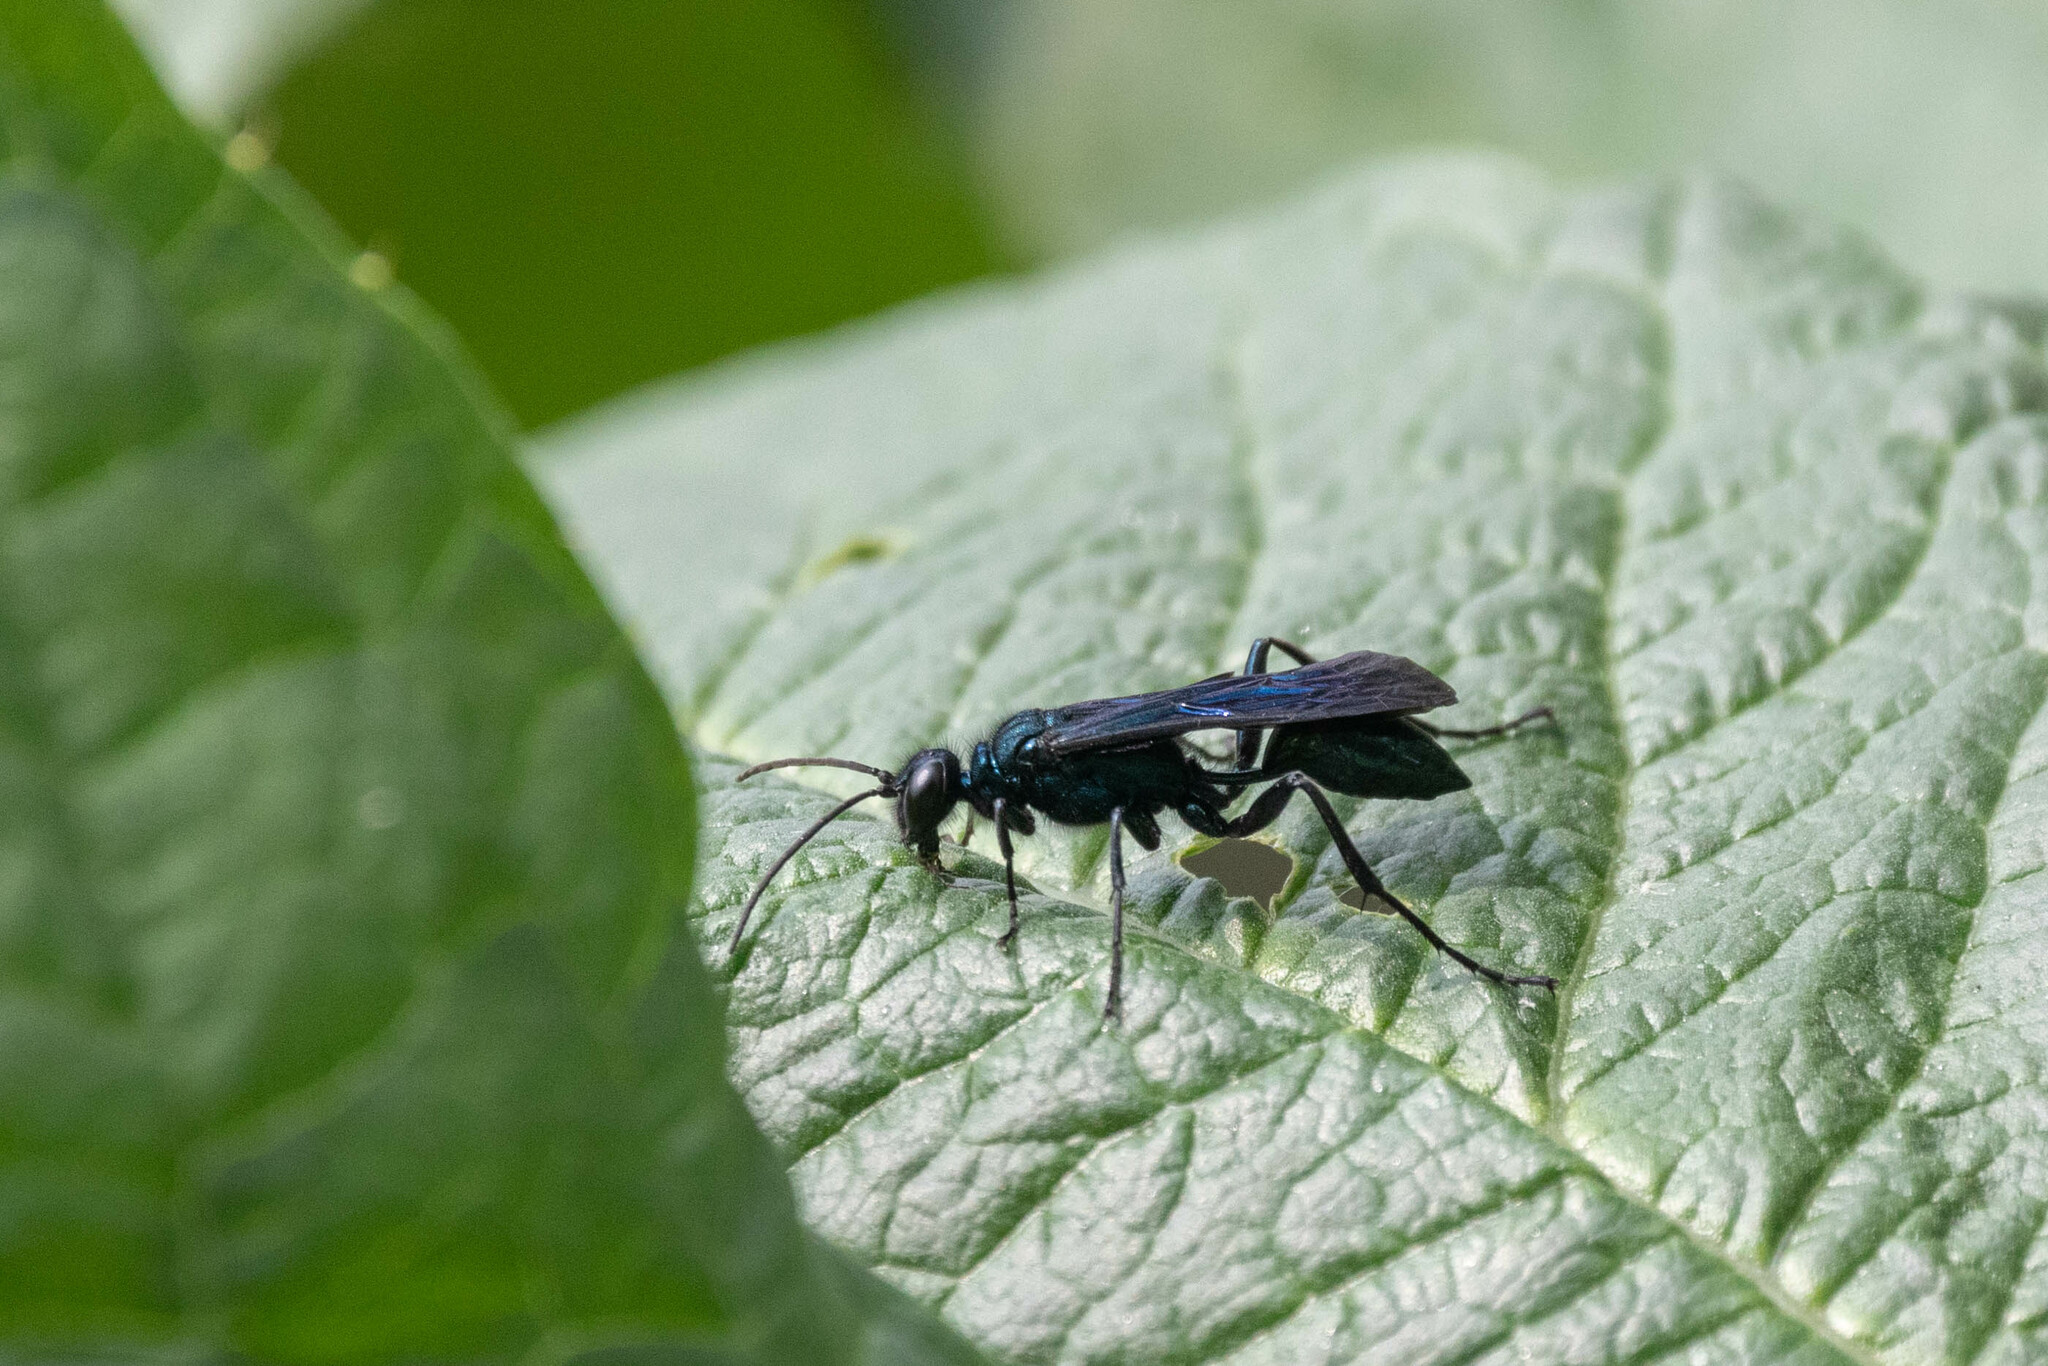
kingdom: Animalia
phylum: Arthropoda
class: Insecta
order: Hymenoptera
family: Sphecidae
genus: Chalybion
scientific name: Chalybion californicum
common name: Mud dauber
